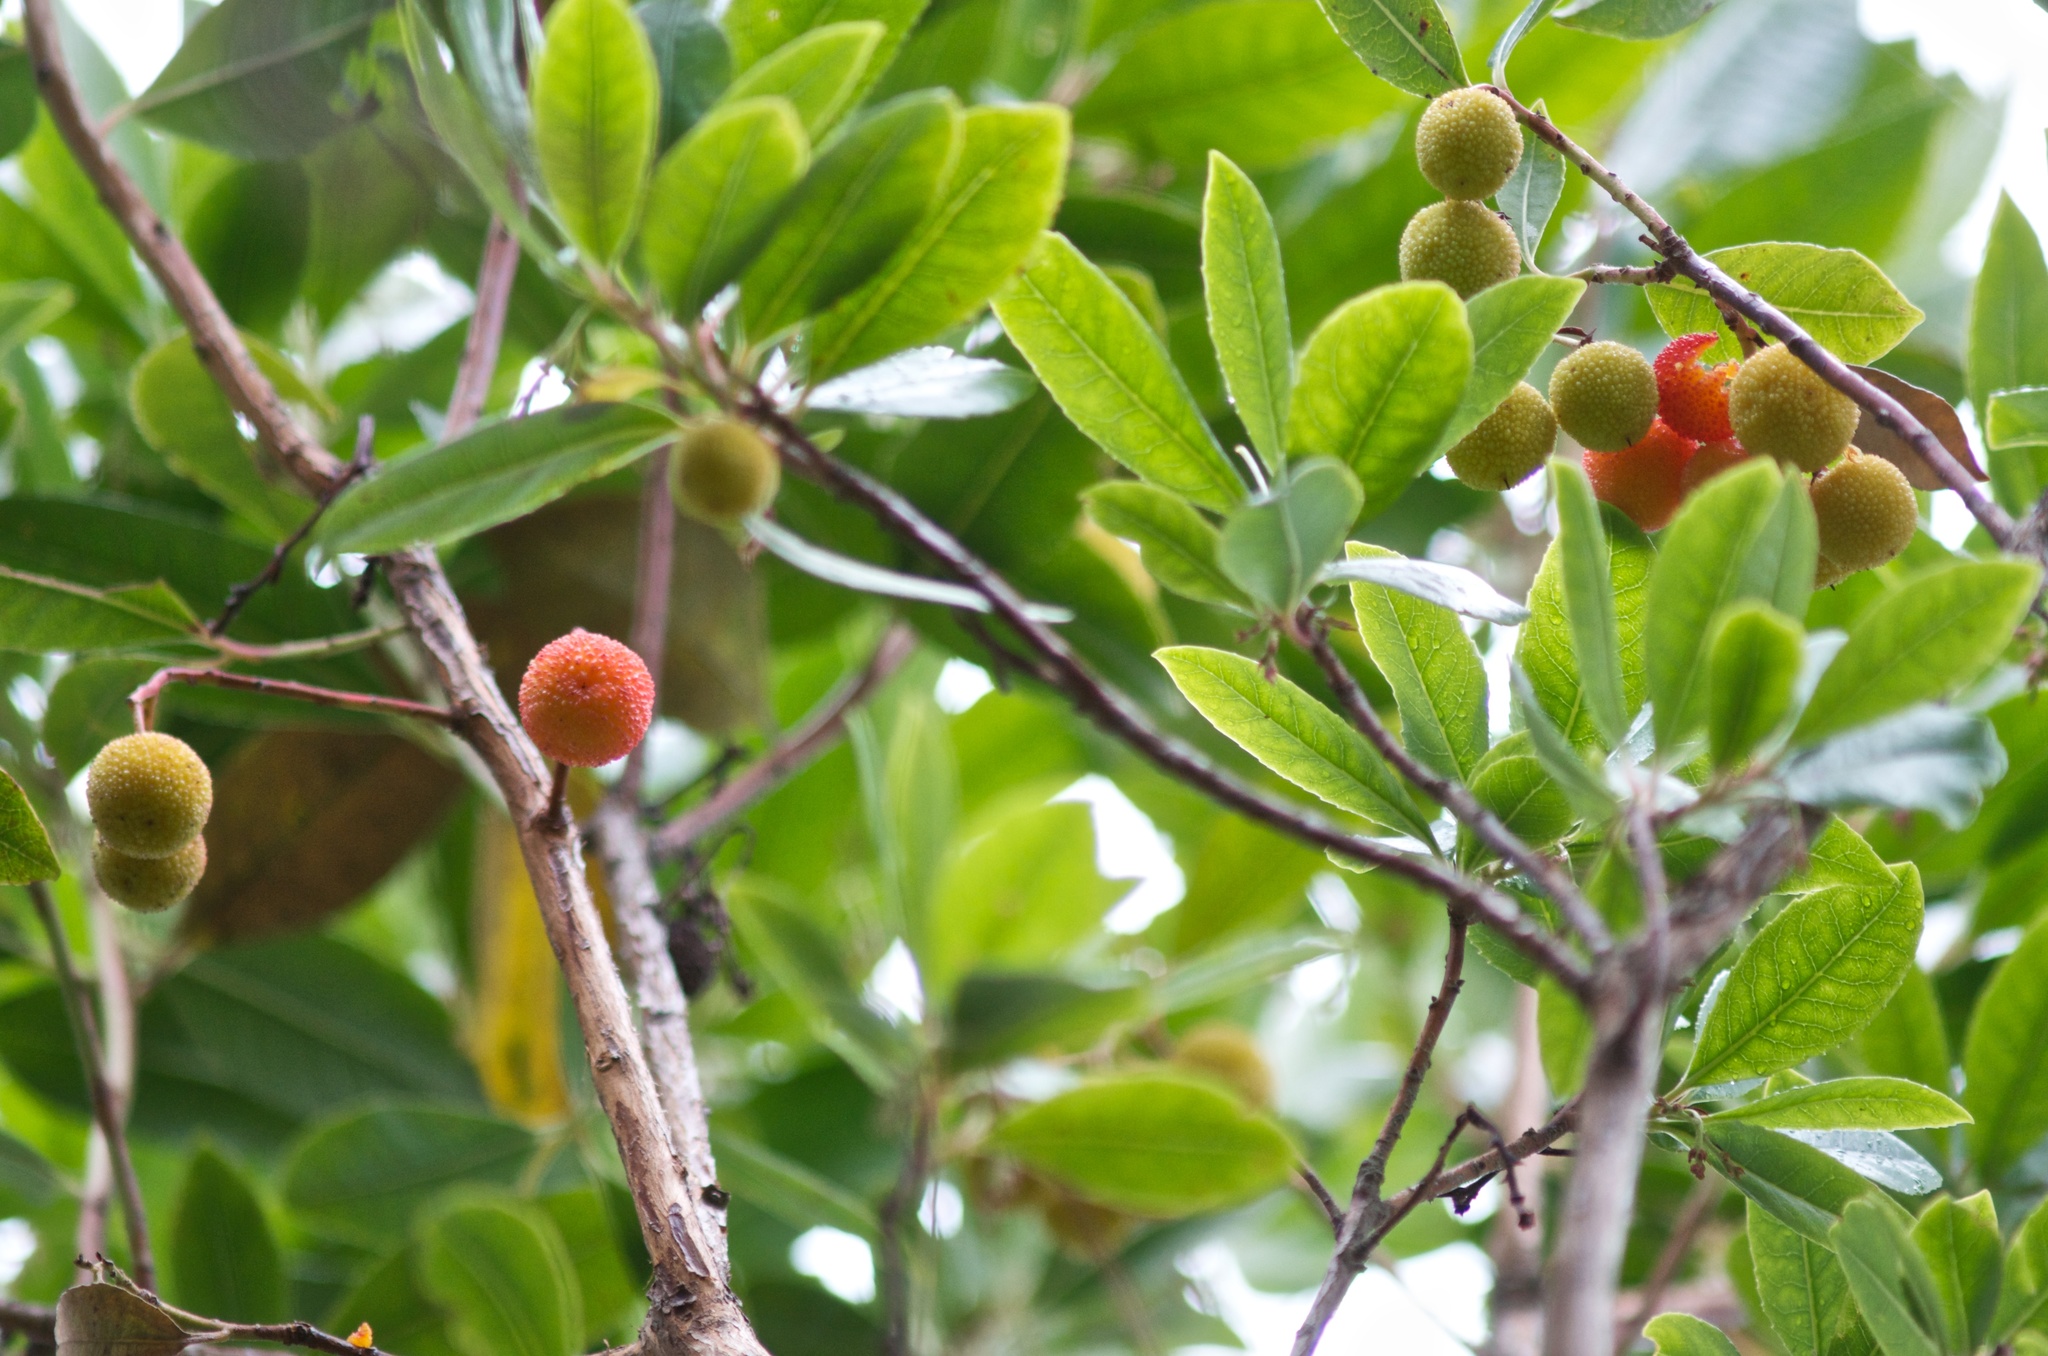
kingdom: Plantae
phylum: Tracheophyta
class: Magnoliopsida
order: Ericales
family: Ericaceae
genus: Arbutus
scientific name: Arbutus unedo
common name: Strawberry-tree
